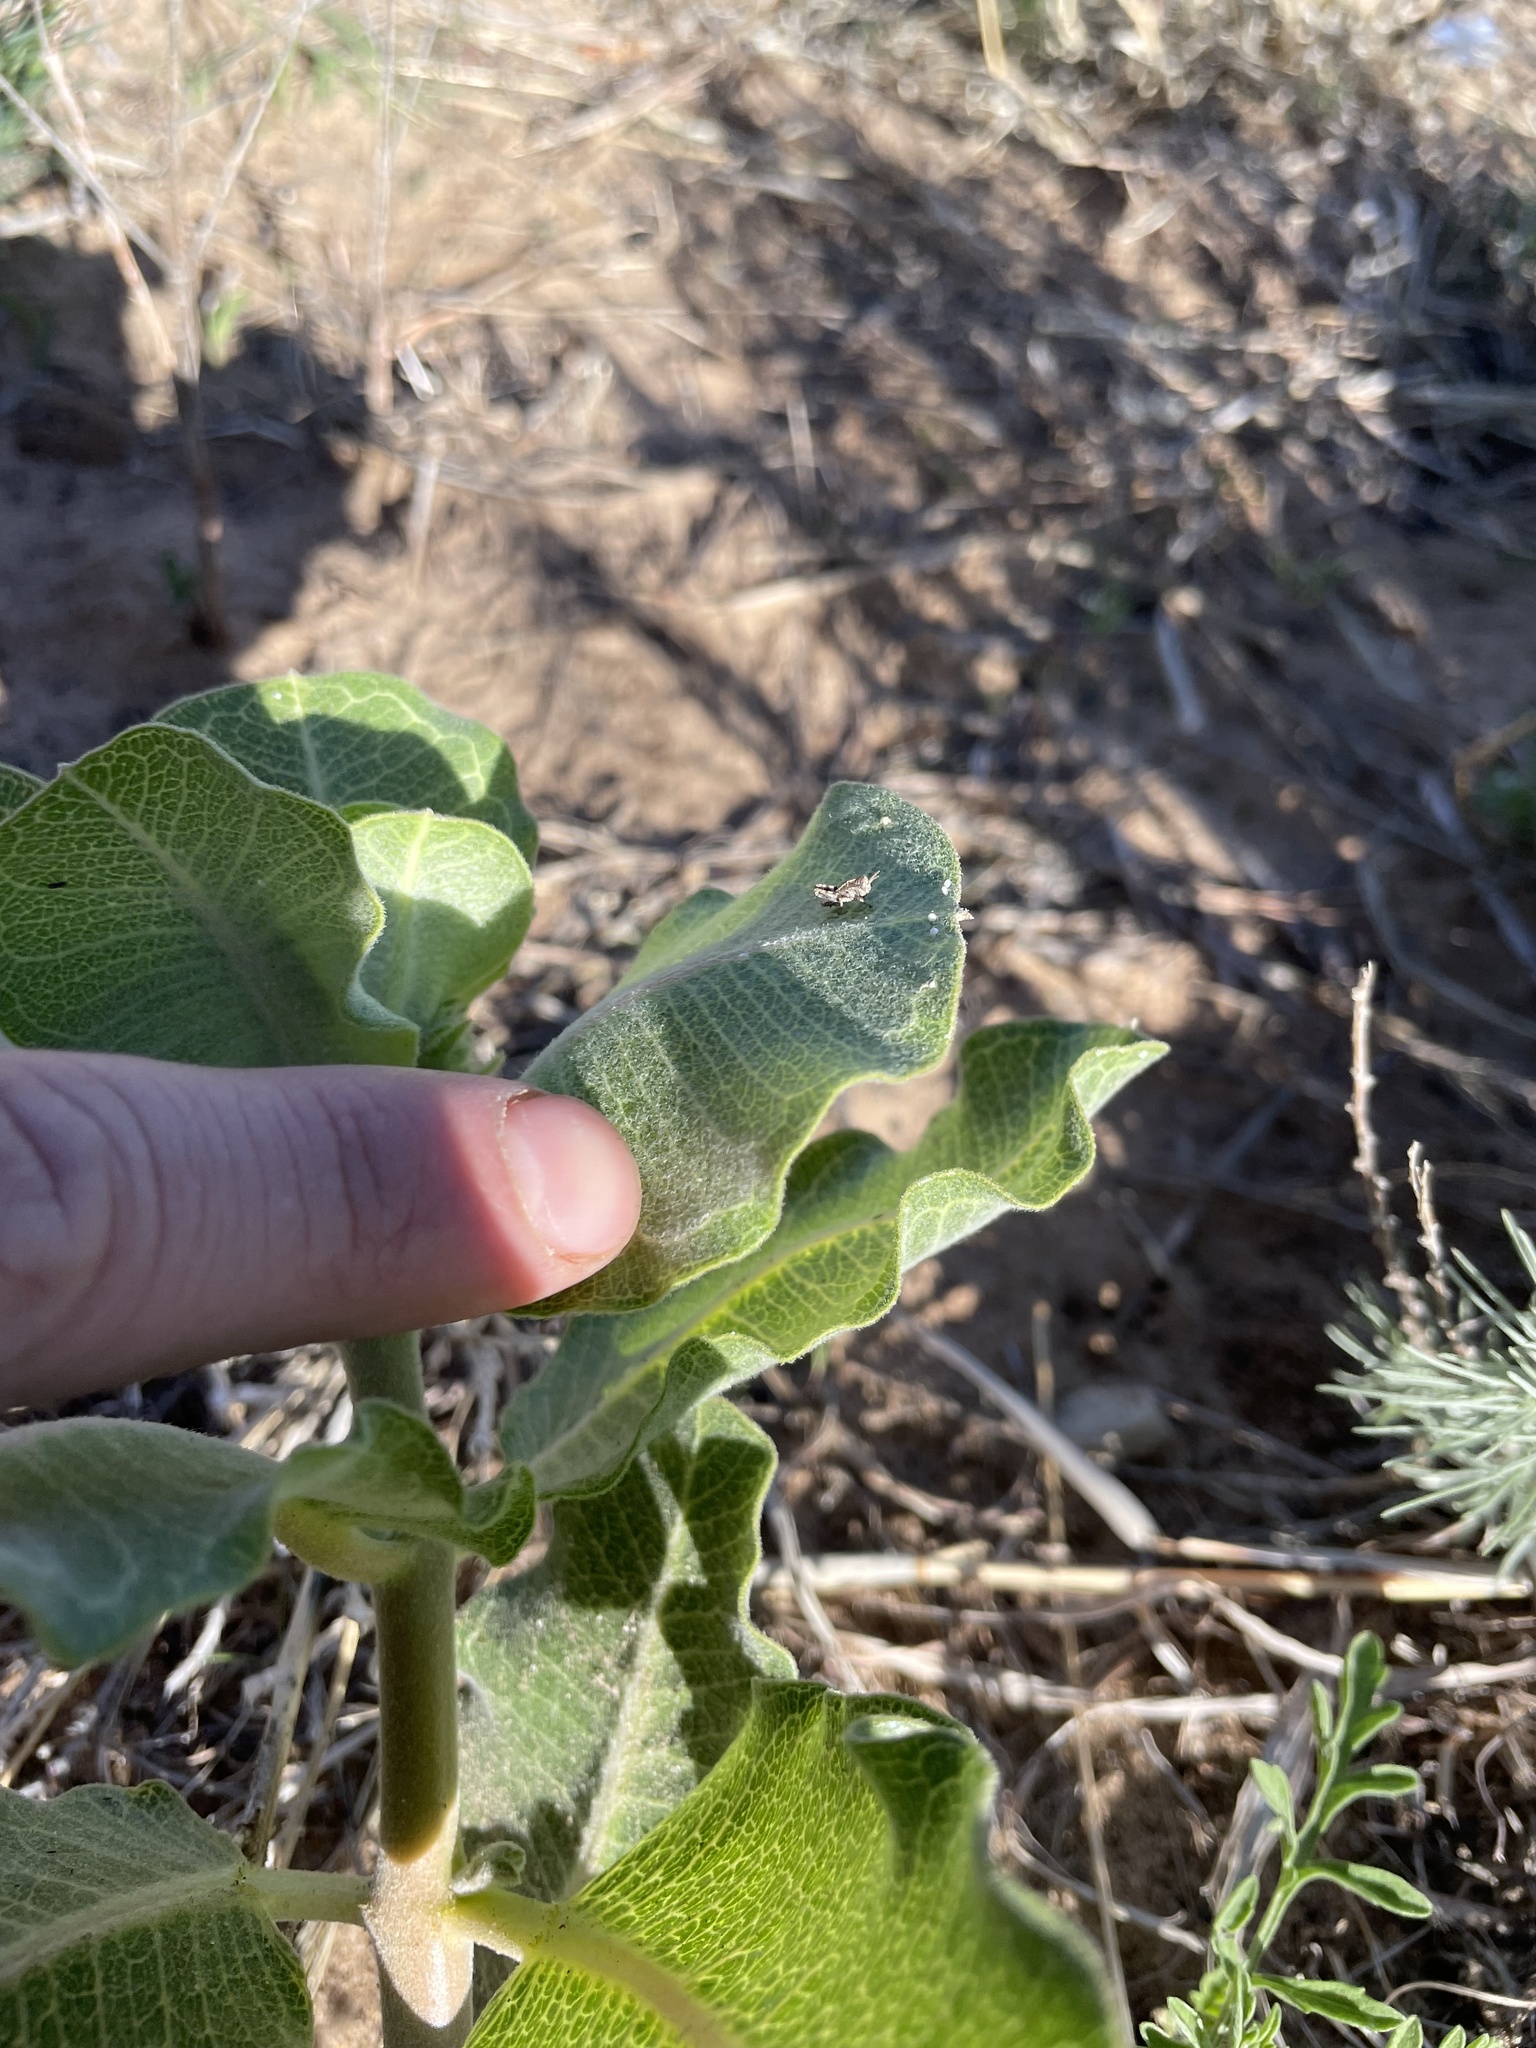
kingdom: Plantae
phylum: Tracheophyta
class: Magnoliopsida
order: Gentianales
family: Apocynaceae
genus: Asclepias
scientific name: Asclepias arenaria
